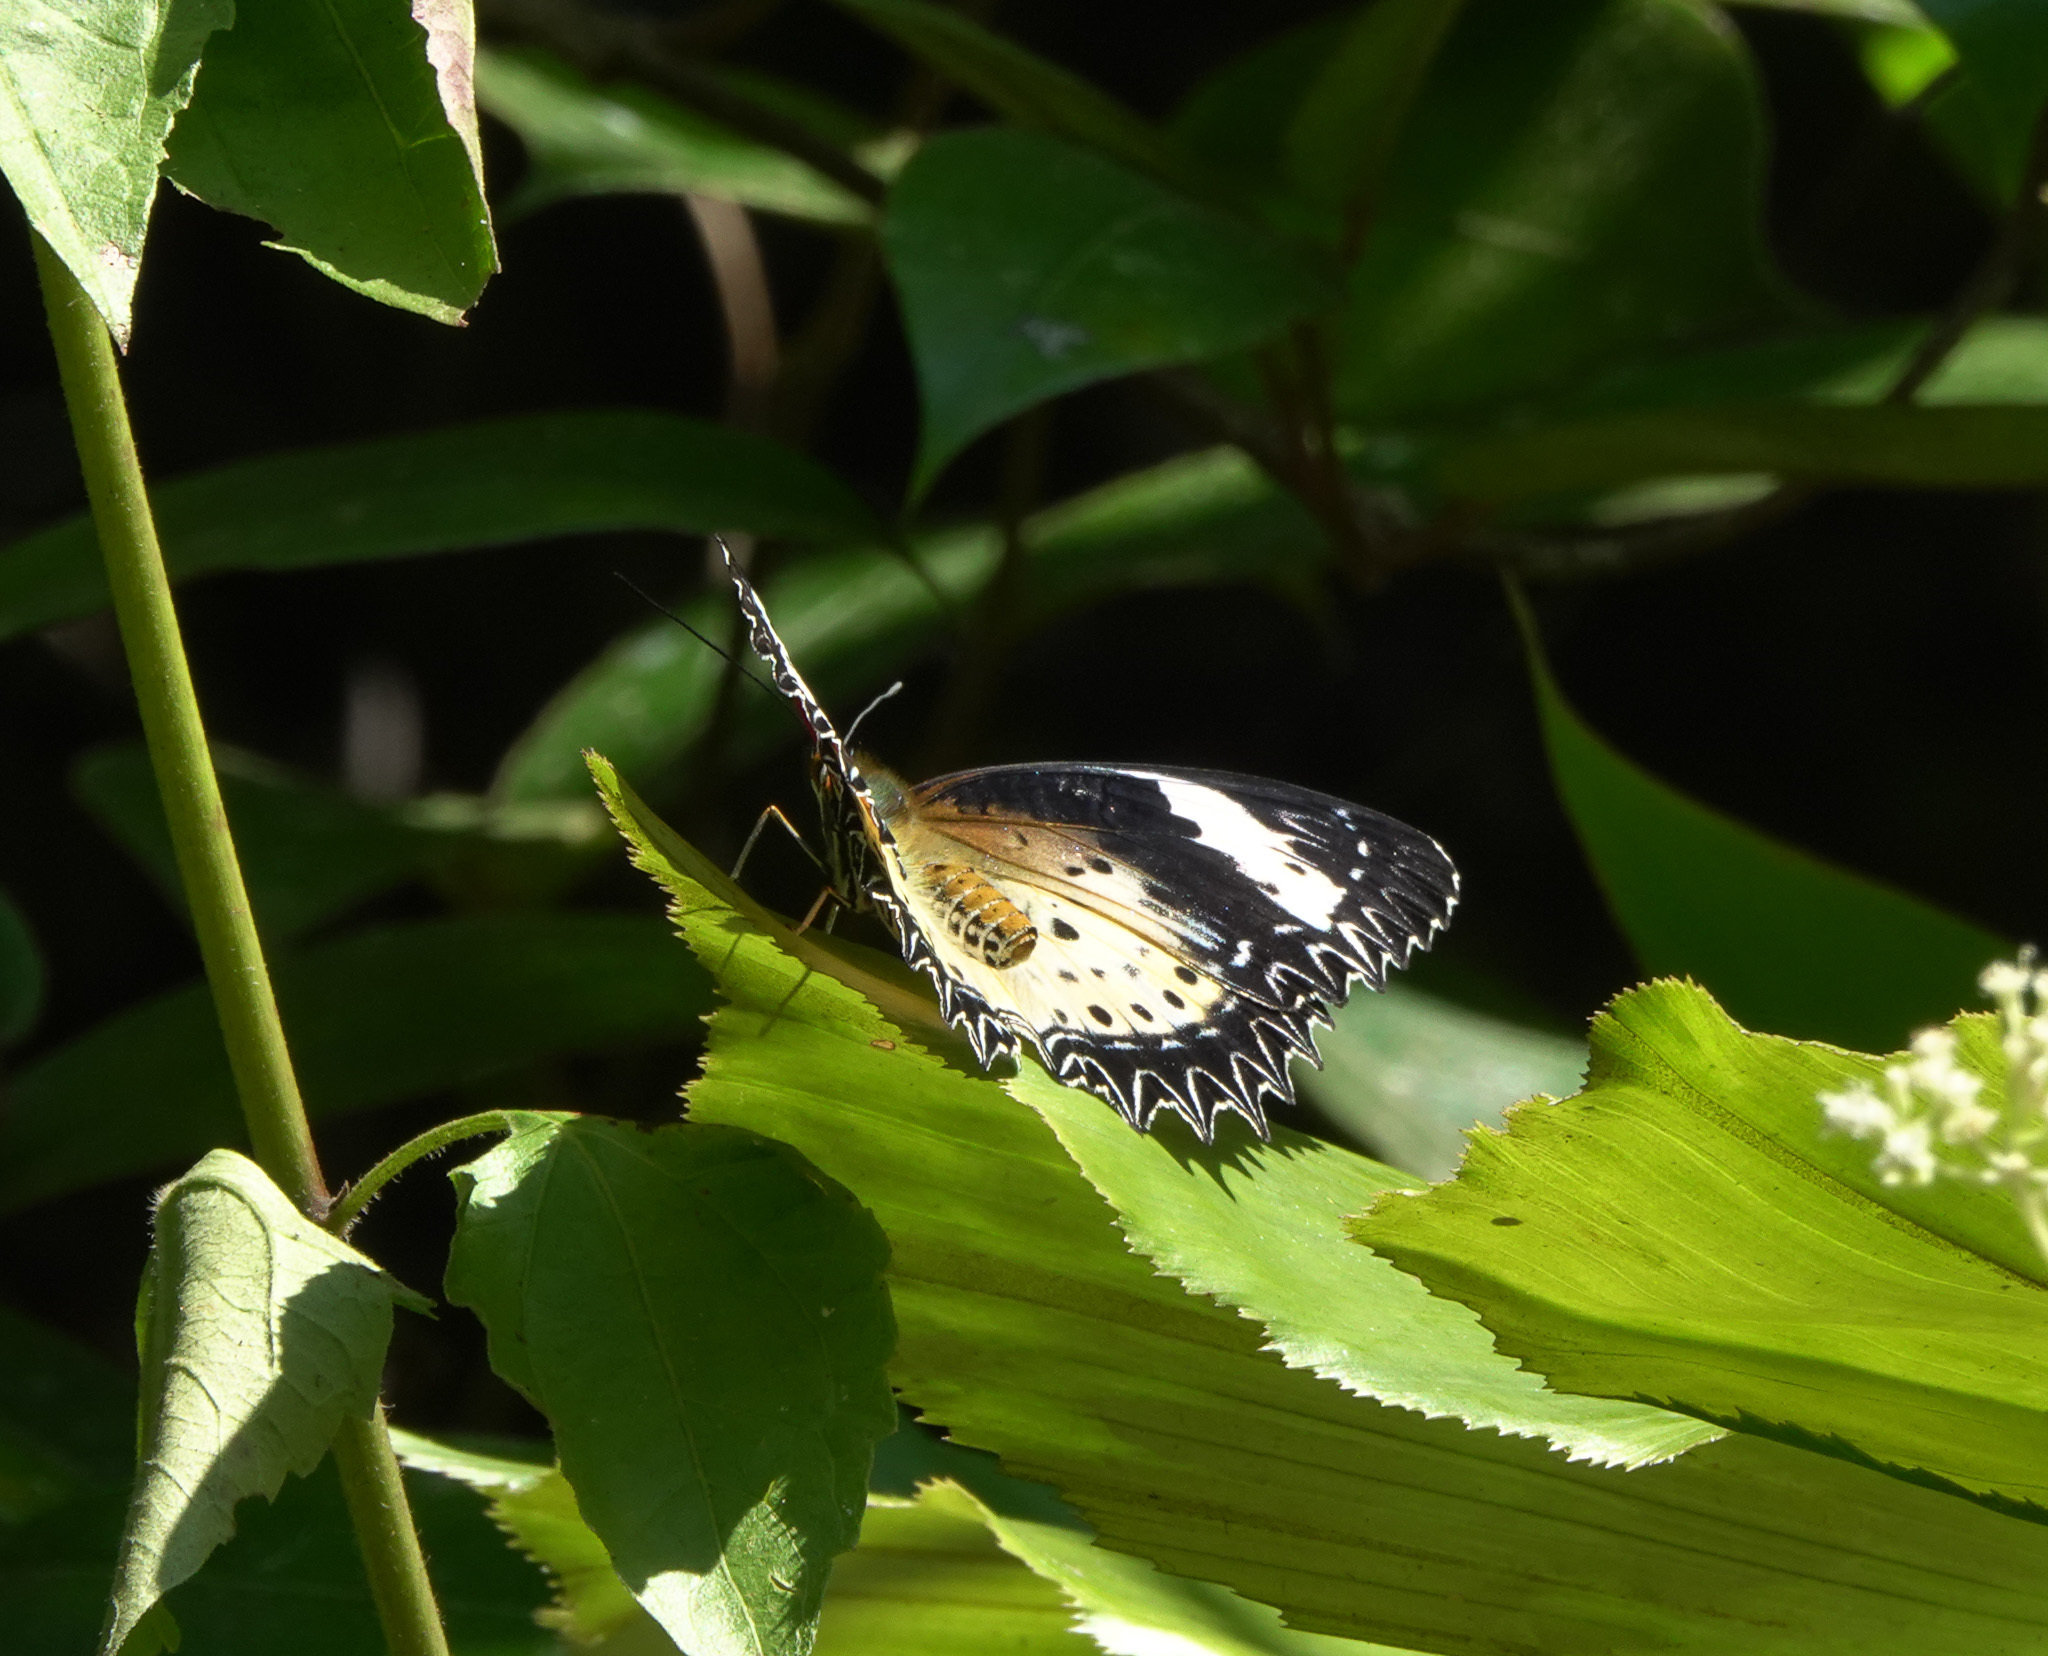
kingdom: Animalia
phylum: Arthropoda
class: Insecta
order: Lepidoptera
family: Nymphalidae
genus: Cethosia
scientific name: Cethosia cyane
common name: Leopard lacewing butterfly
